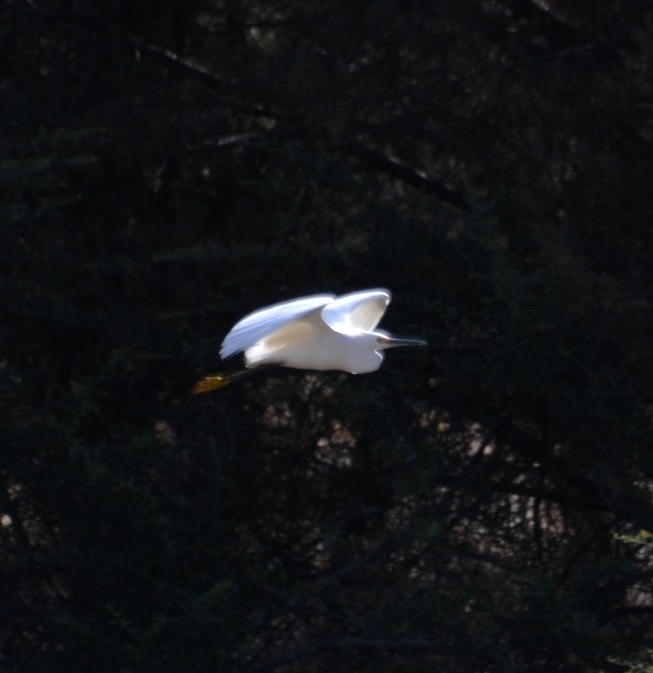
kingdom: Animalia
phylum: Chordata
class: Aves
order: Pelecaniformes
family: Ardeidae
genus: Egretta
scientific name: Egretta thula
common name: Snowy egret
